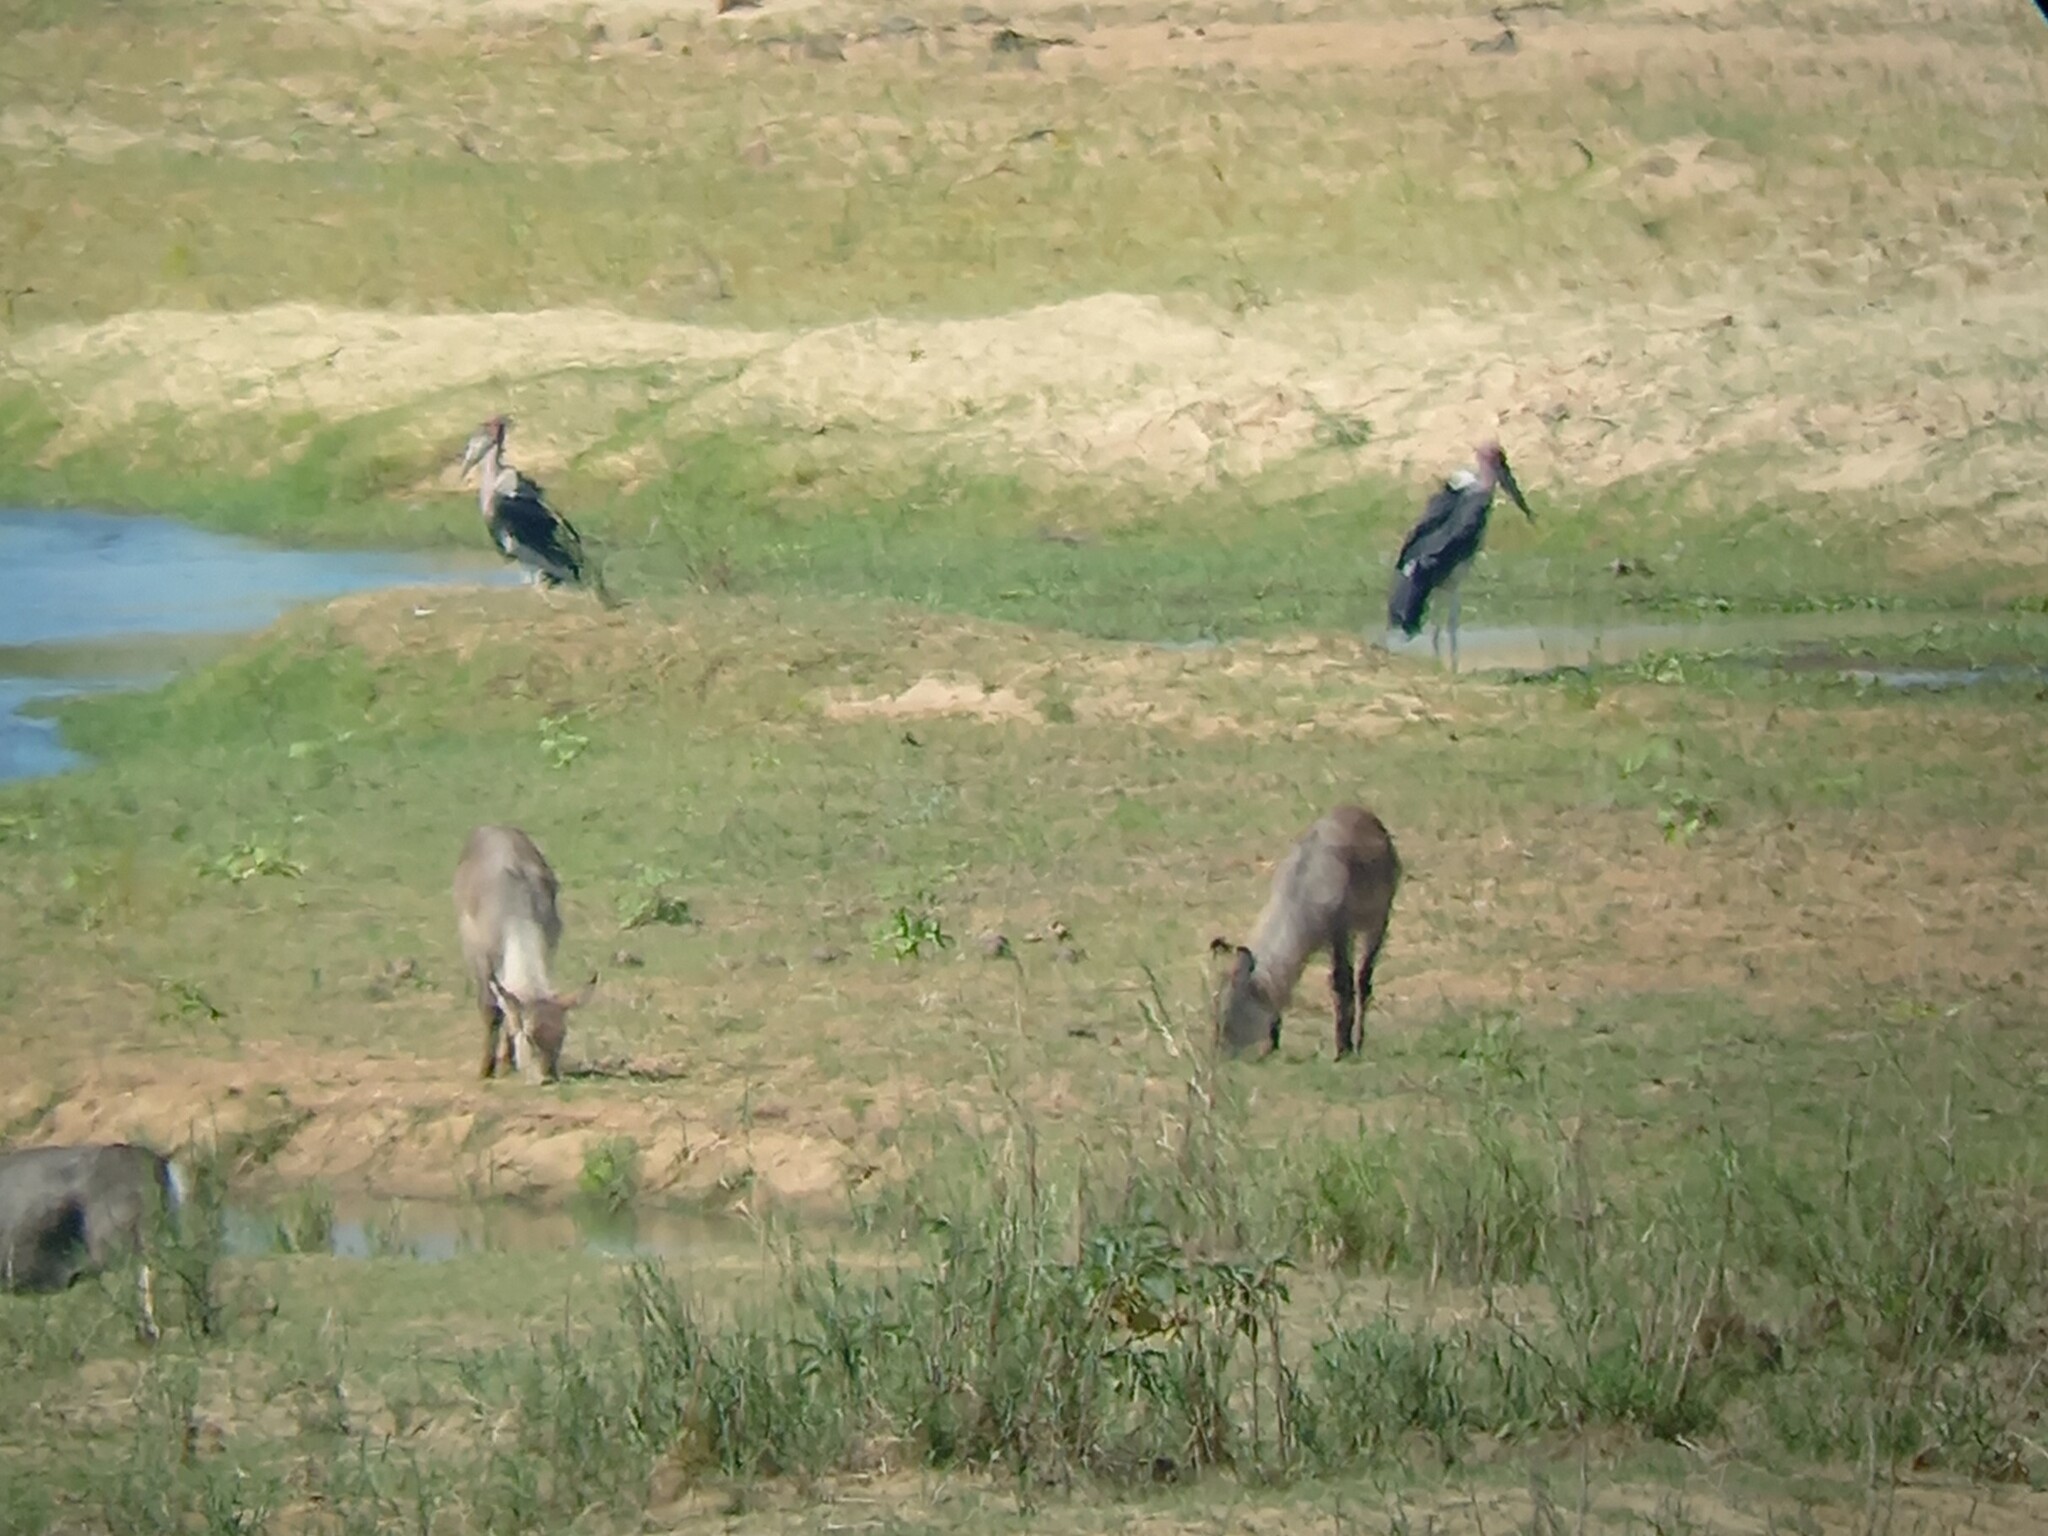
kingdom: Animalia
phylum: Chordata
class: Aves
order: Ciconiiformes
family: Ciconiidae
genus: Leptoptilos
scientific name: Leptoptilos crumenifer
